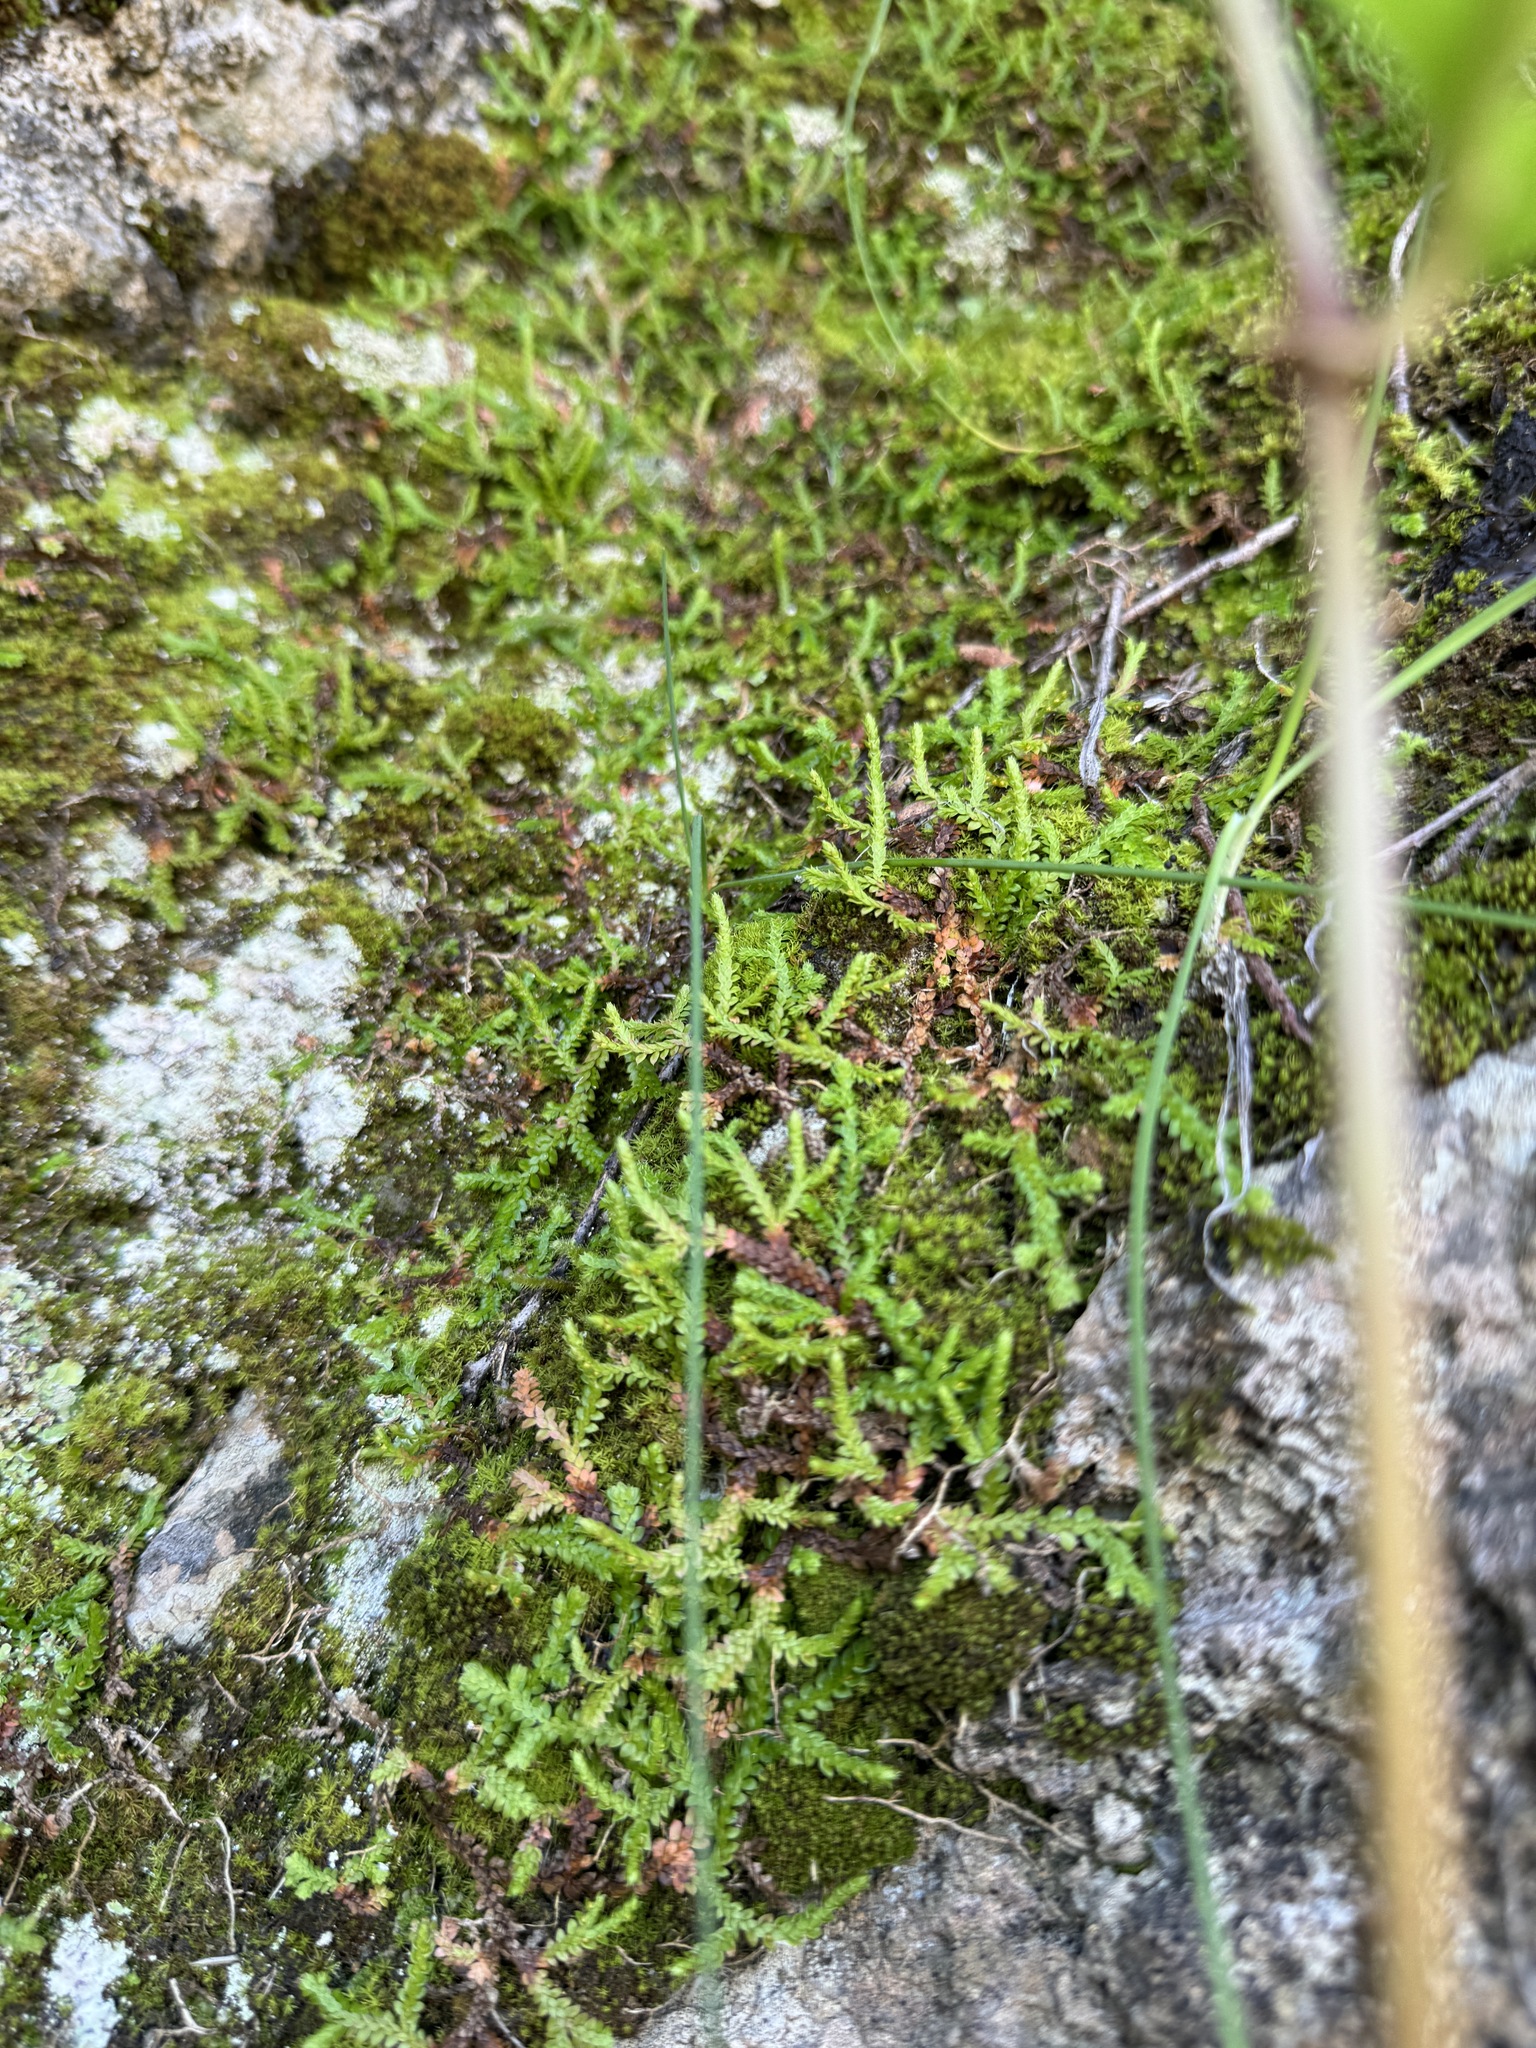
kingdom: Plantae
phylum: Tracheophyta
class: Lycopodiopsida
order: Selaginellales
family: Selaginellaceae
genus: Selaginella
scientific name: Selaginella denticulata
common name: Toothed-leaved clubmoss
